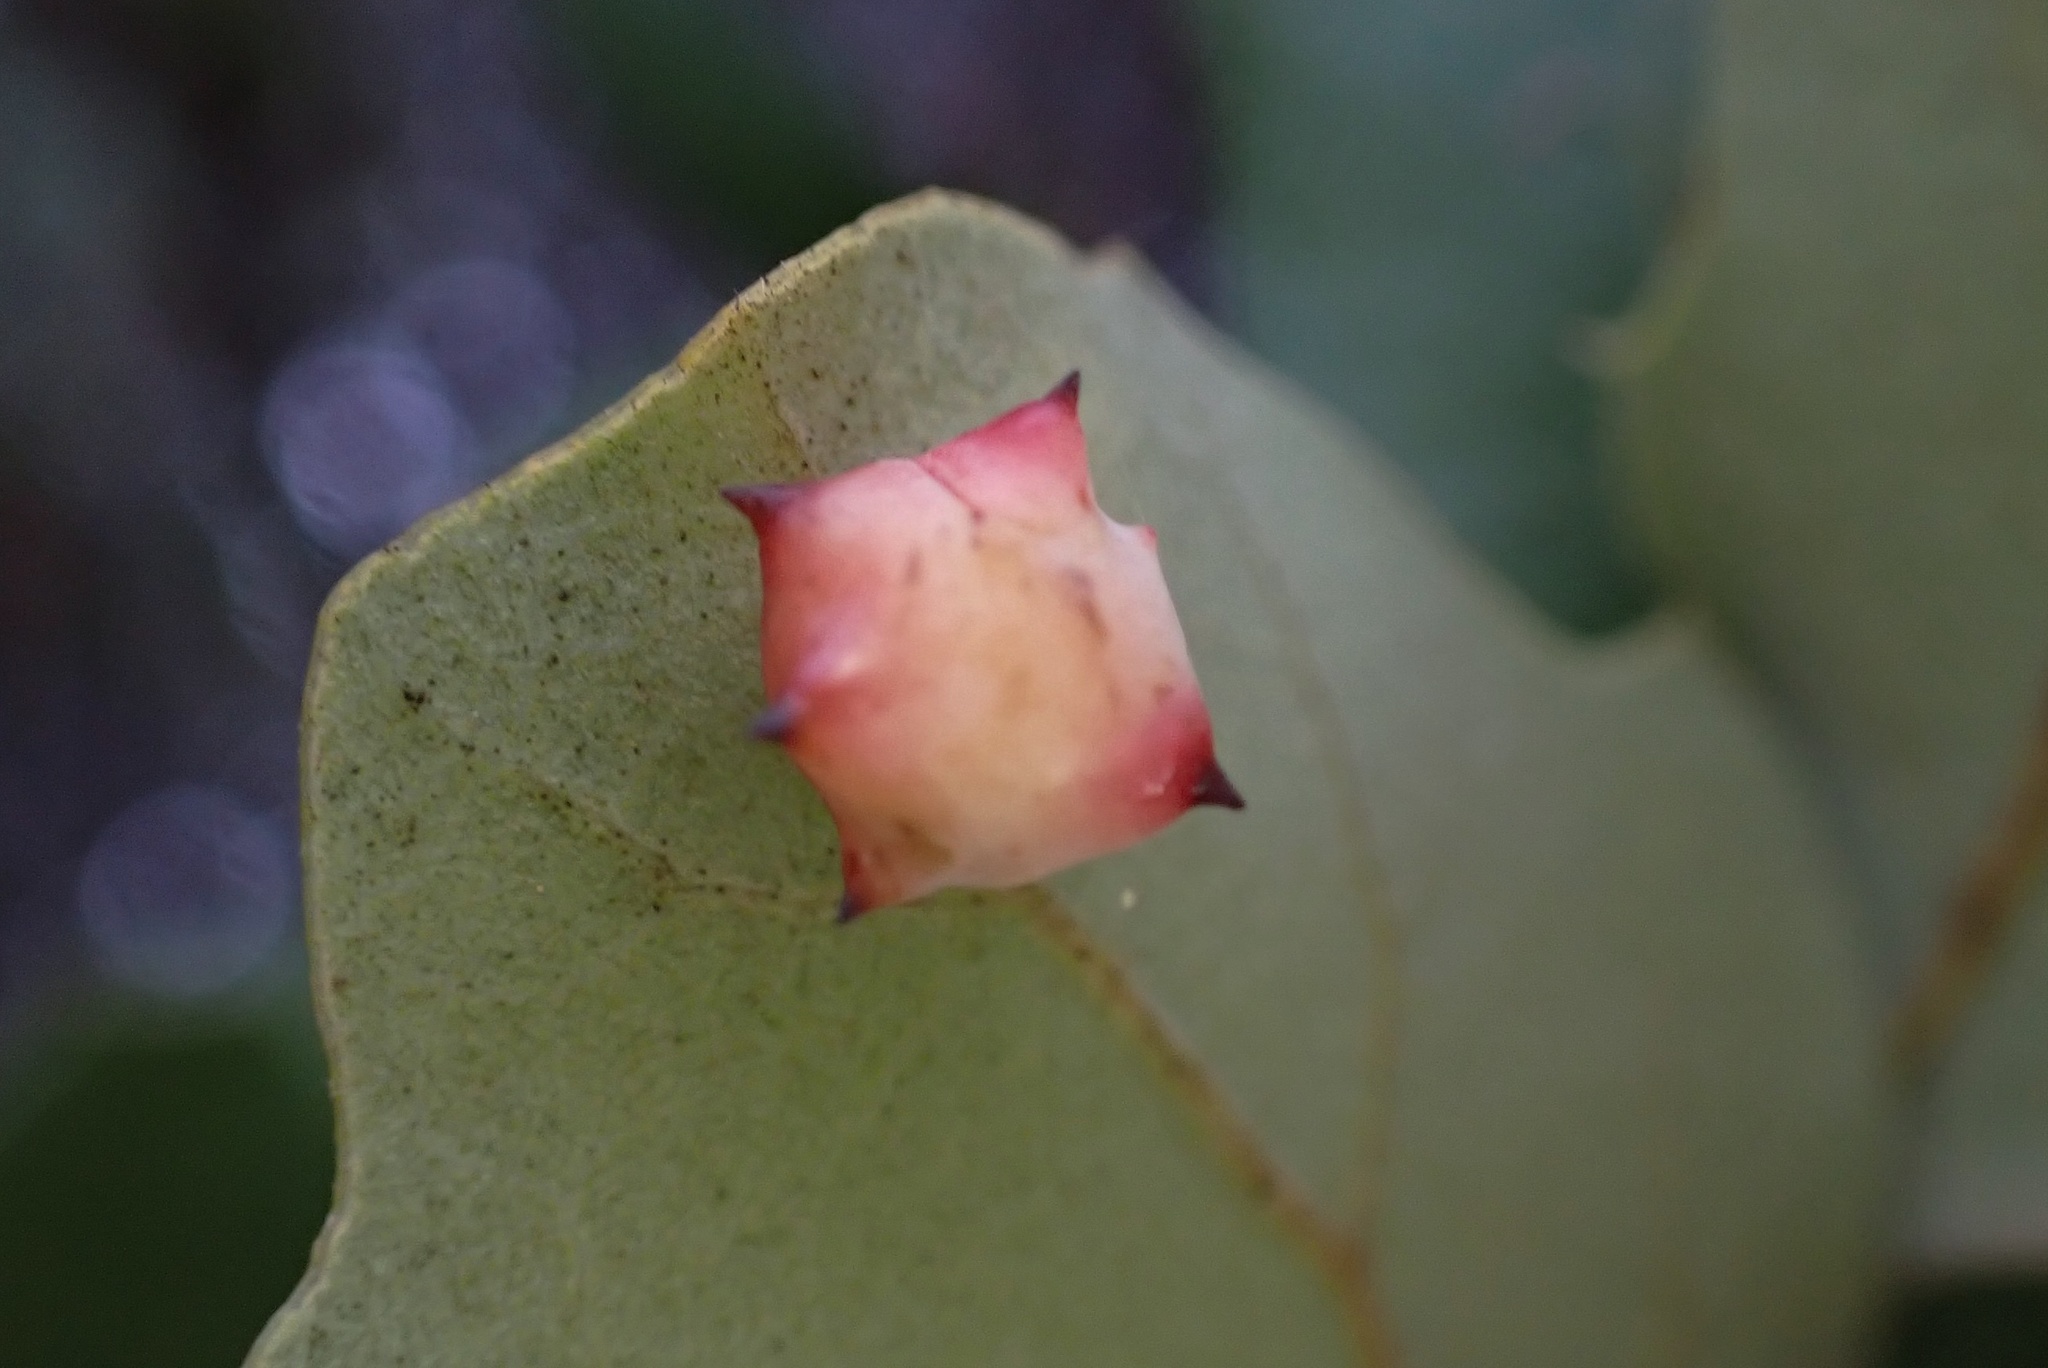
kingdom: Animalia
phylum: Arthropoda
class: Insecta
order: Hymenoptera
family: Cynipidae
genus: Cynips
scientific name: Cynips douglasi
